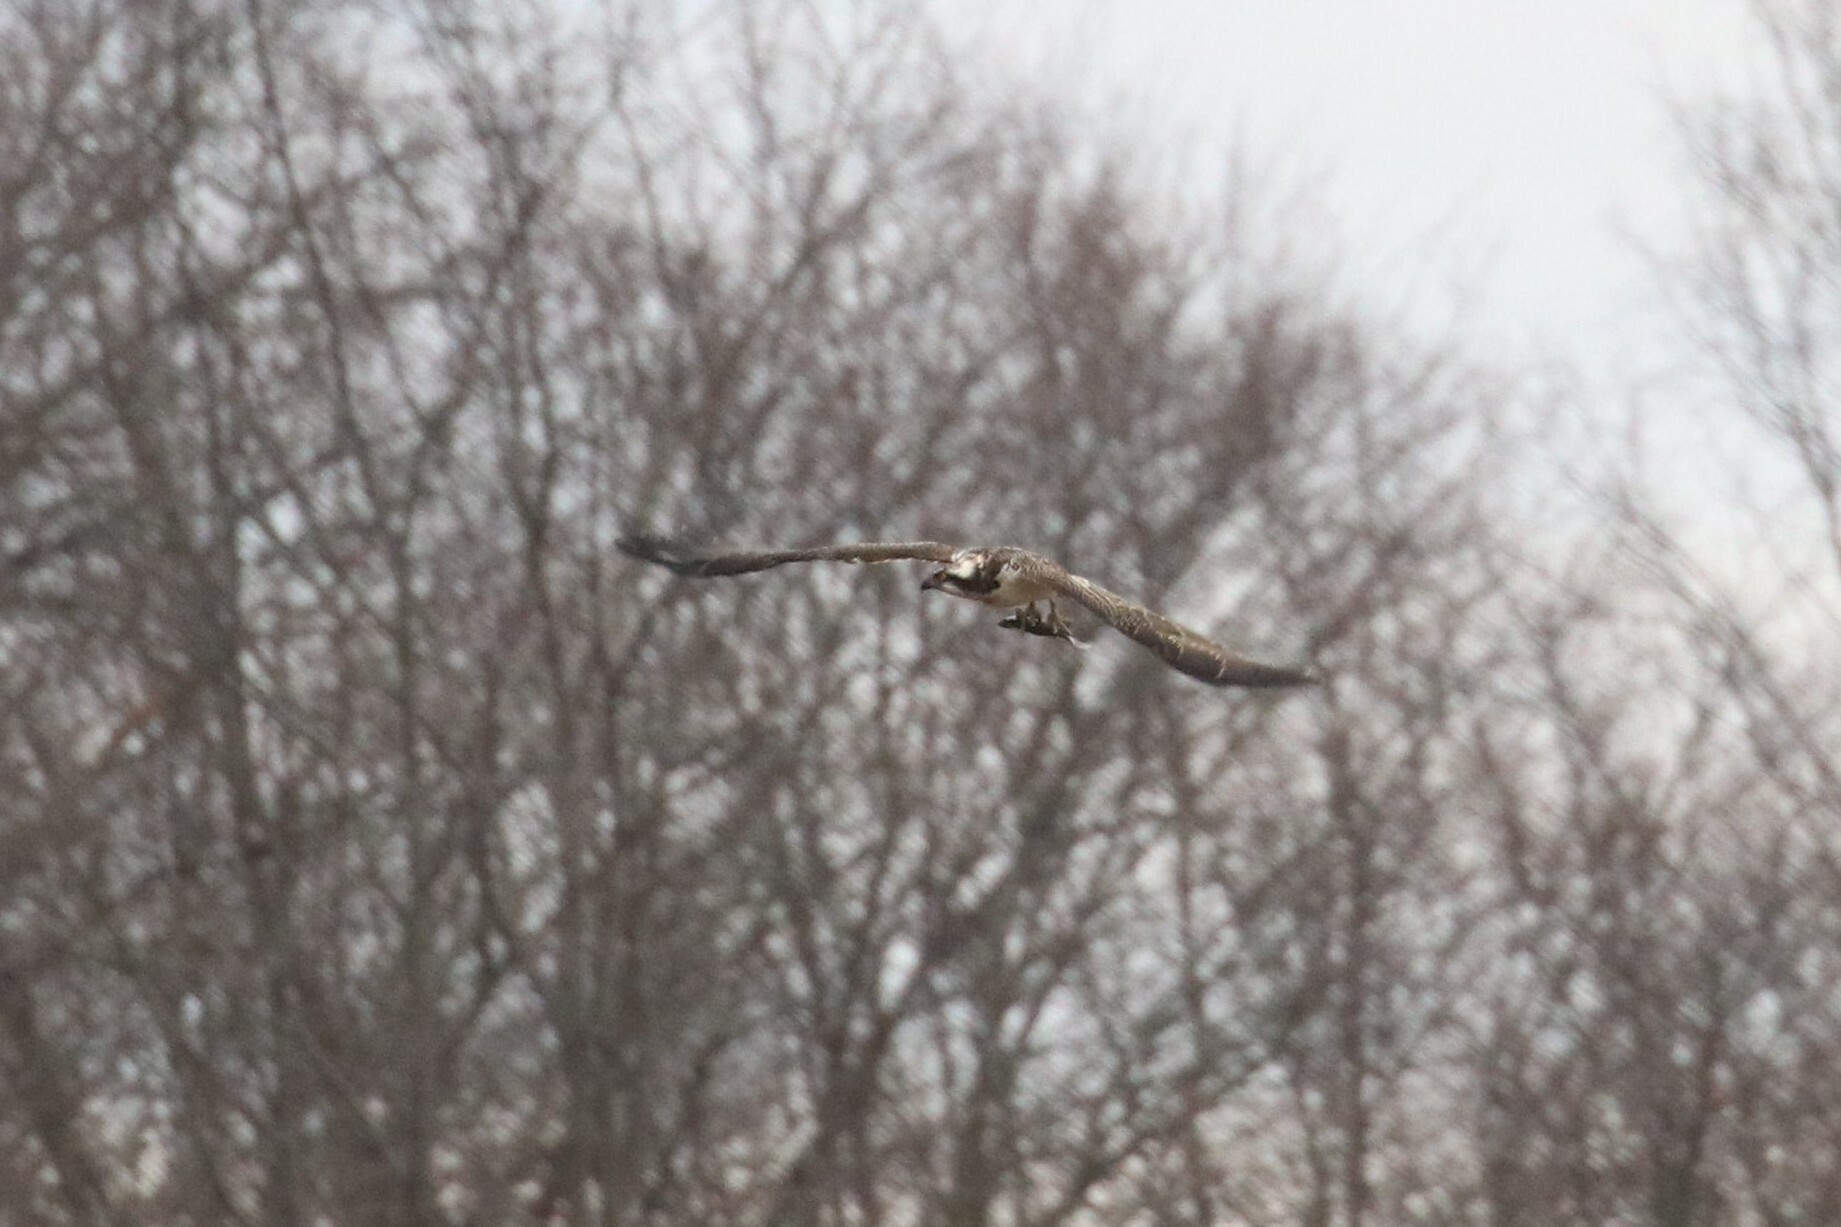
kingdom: Animalia
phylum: Chordata
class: Aves
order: Accipitriformes
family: Pandionidae
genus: Pandion
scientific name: Pandion haliaetus
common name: Osprey
